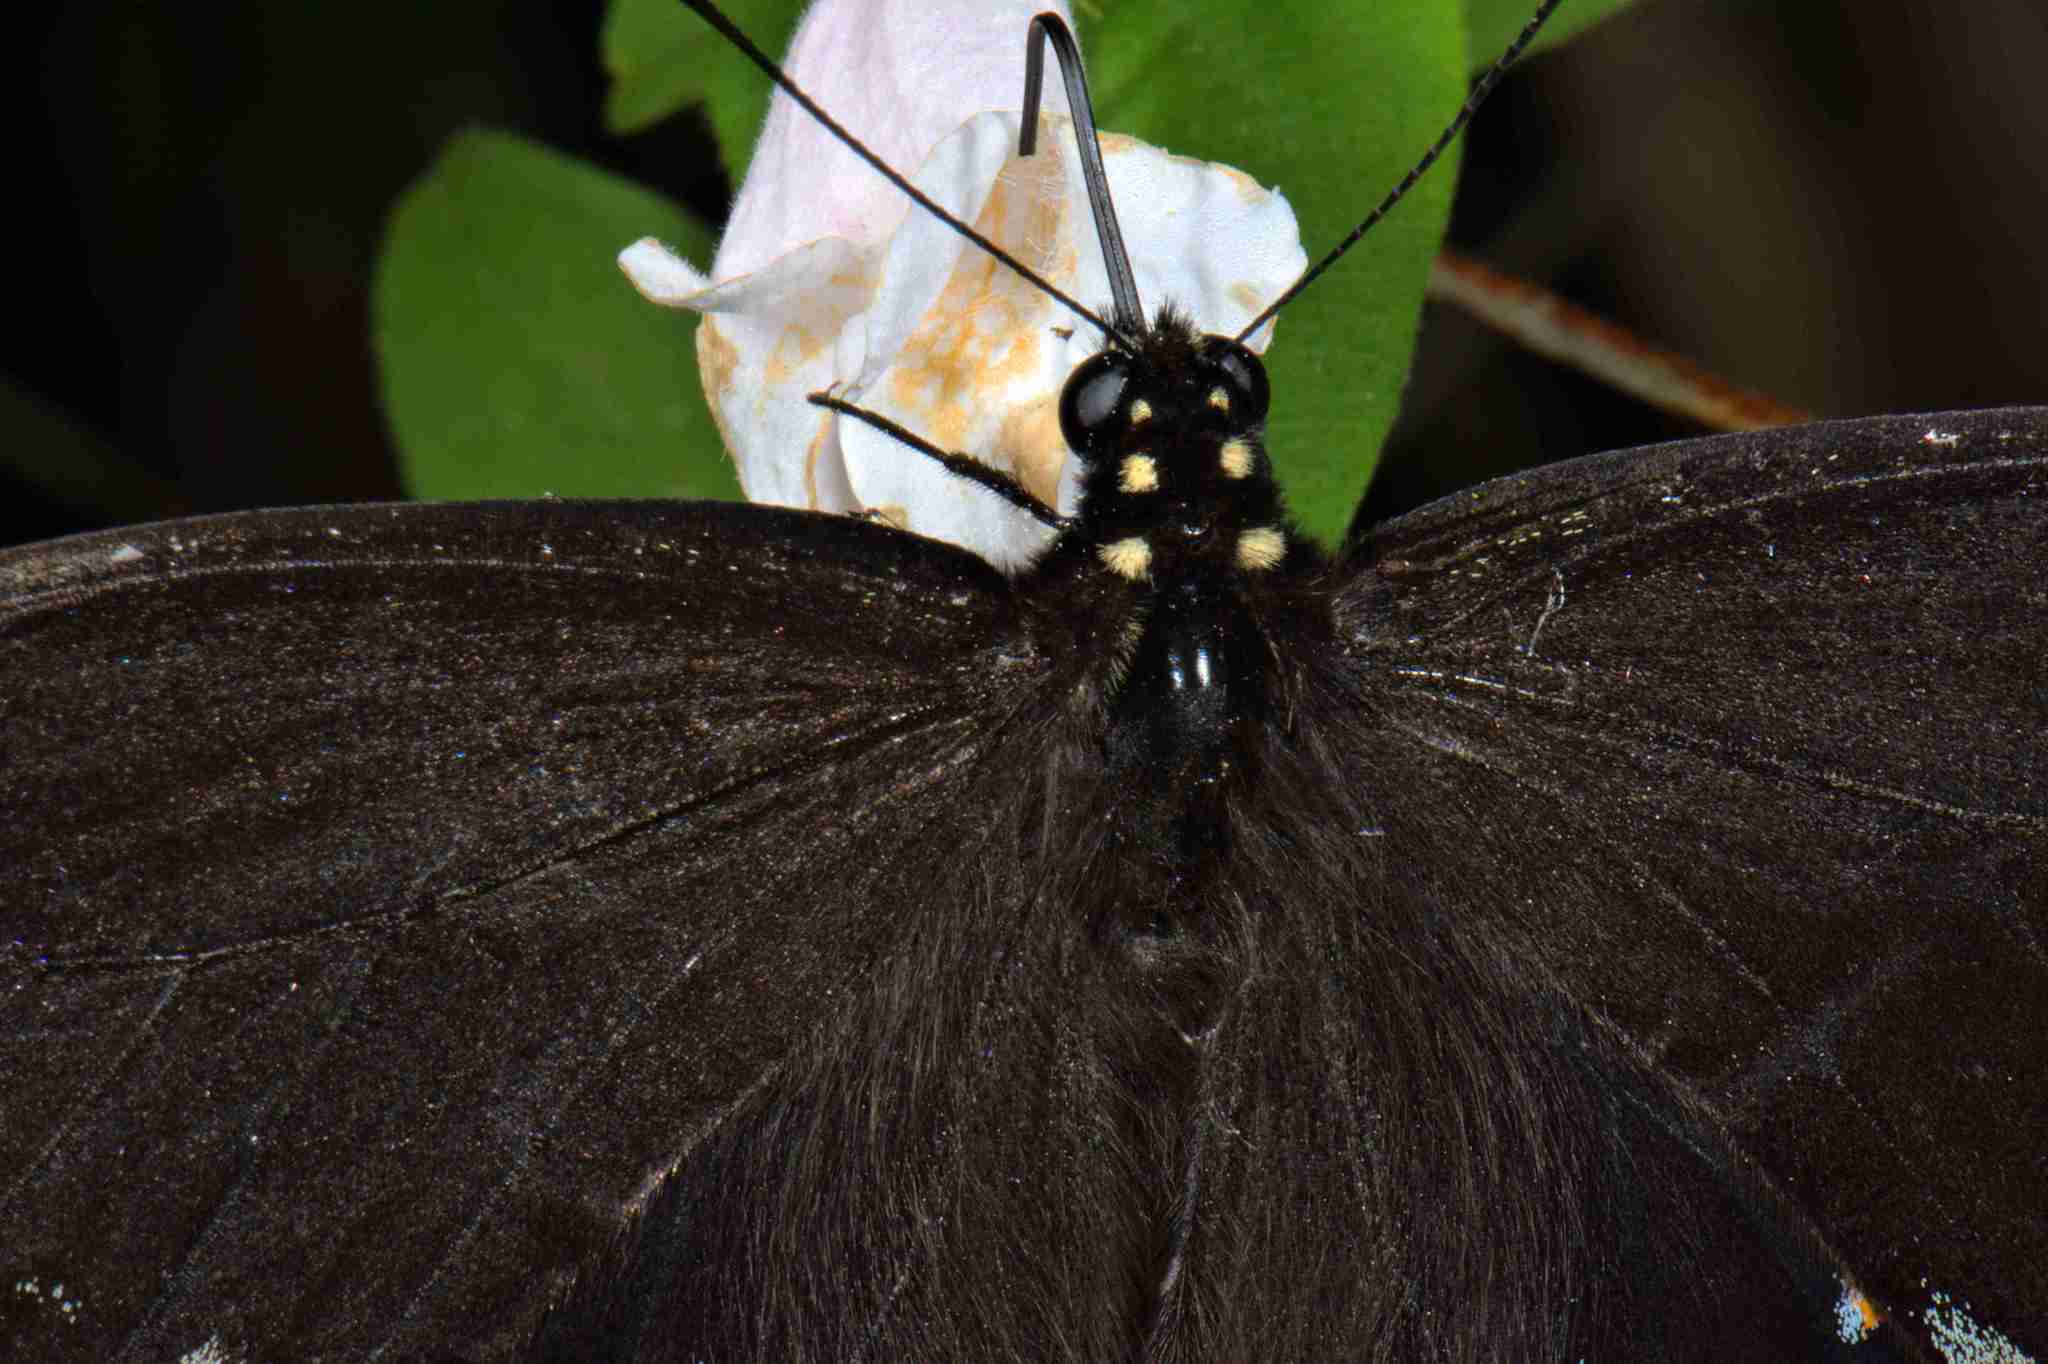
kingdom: Animalia
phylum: Arthropoda
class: Insecta
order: Lepidoptera
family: Papilionidae
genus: Papilio
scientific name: Papilio troilus
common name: Spicebush swallowtail
